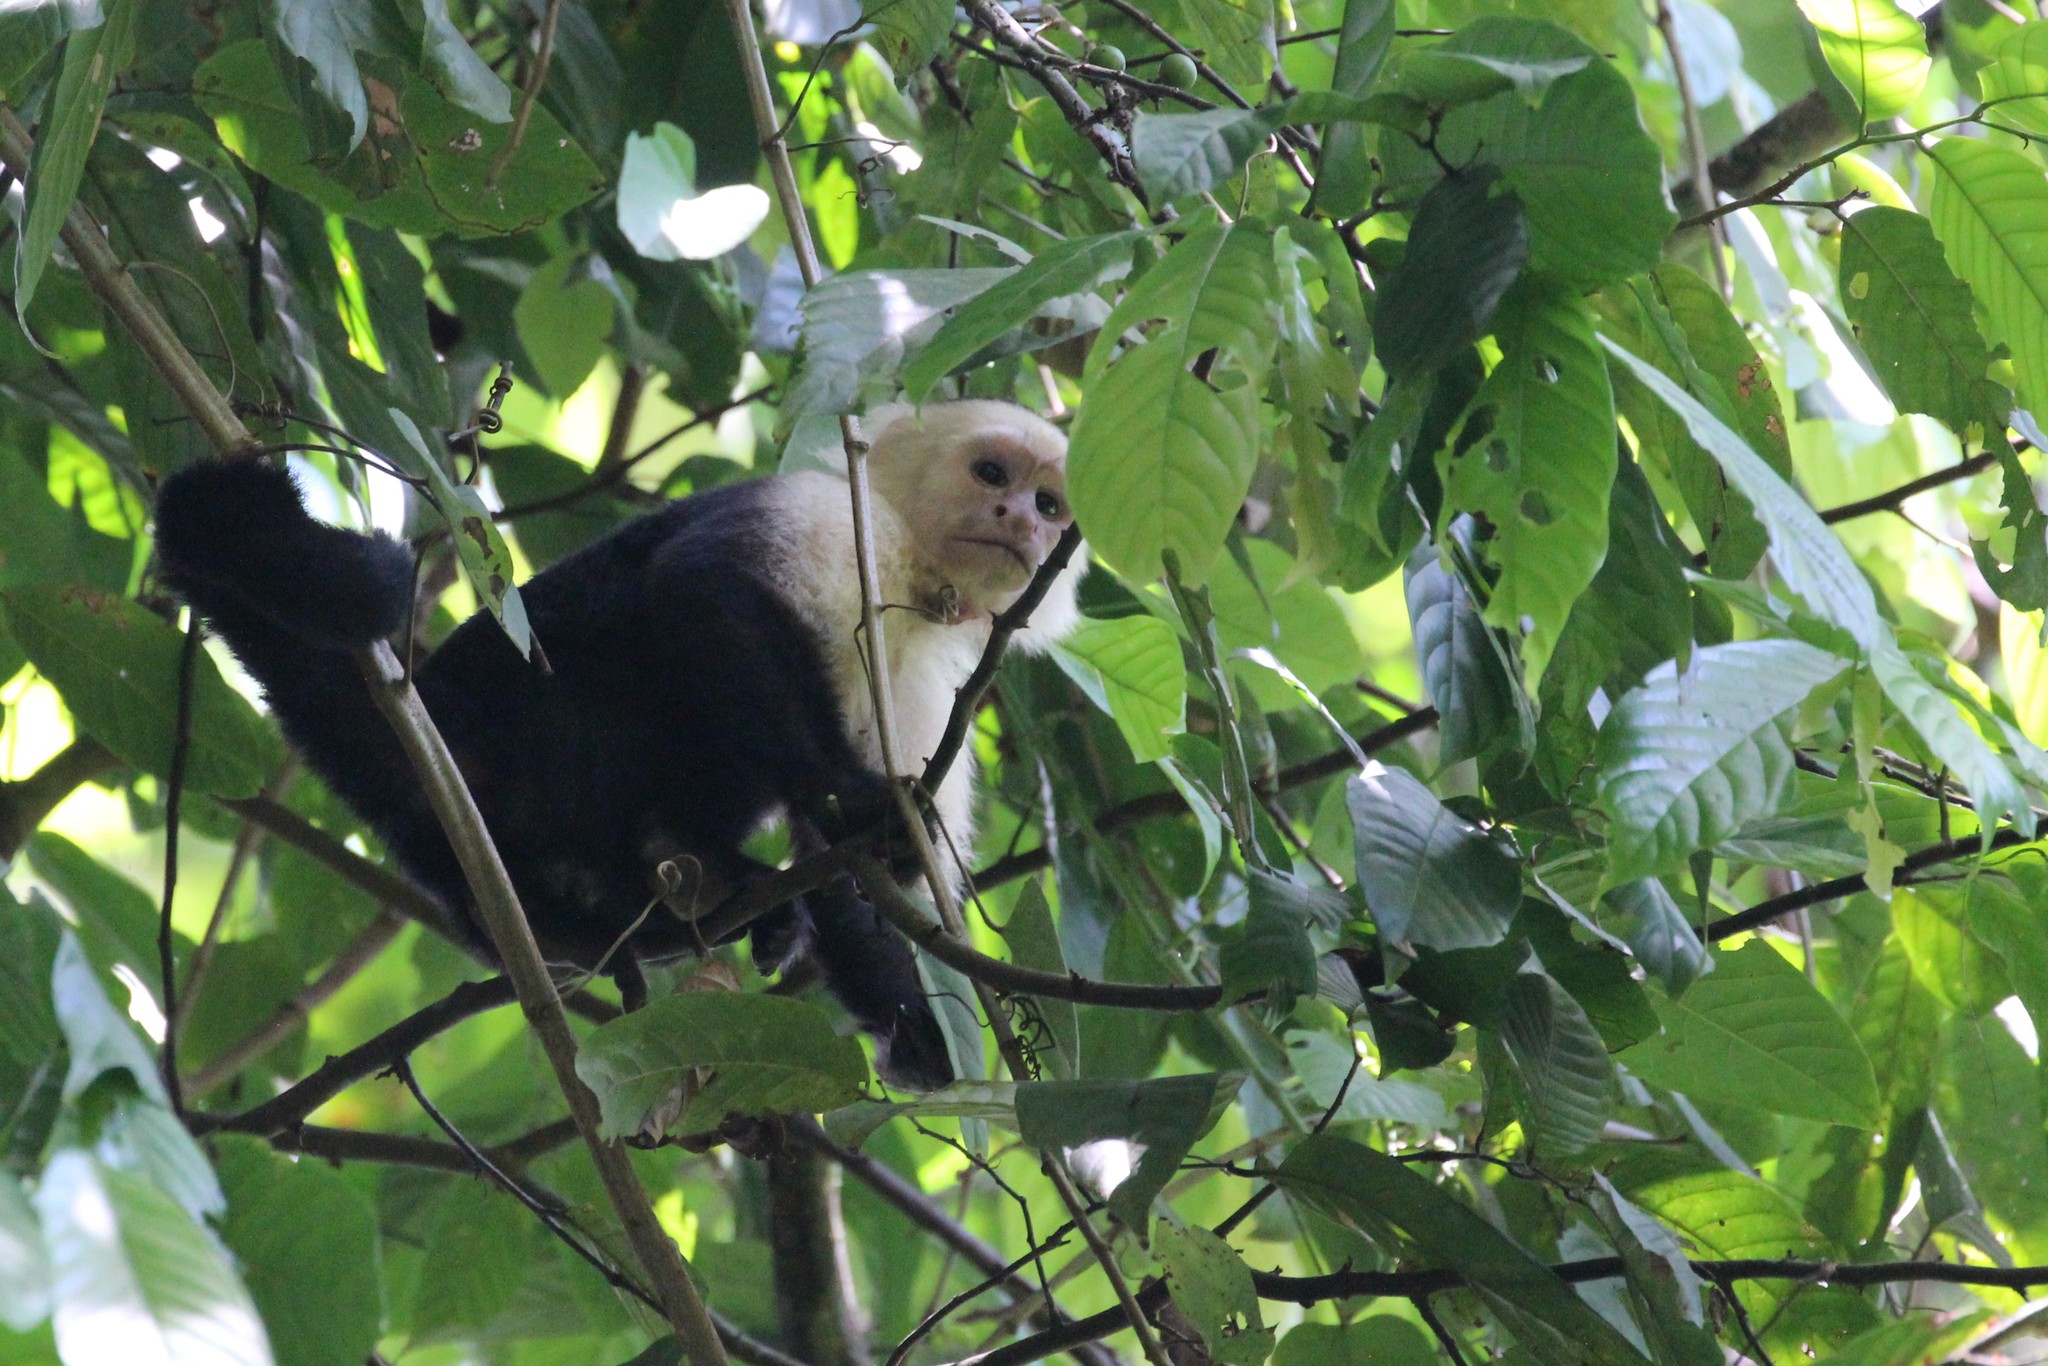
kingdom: Animalia
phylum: Chordata
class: Mammalia
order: Primates
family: Cebidae
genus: Cebus
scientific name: Cebus imitator
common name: Panamanian white-faced capuchin
